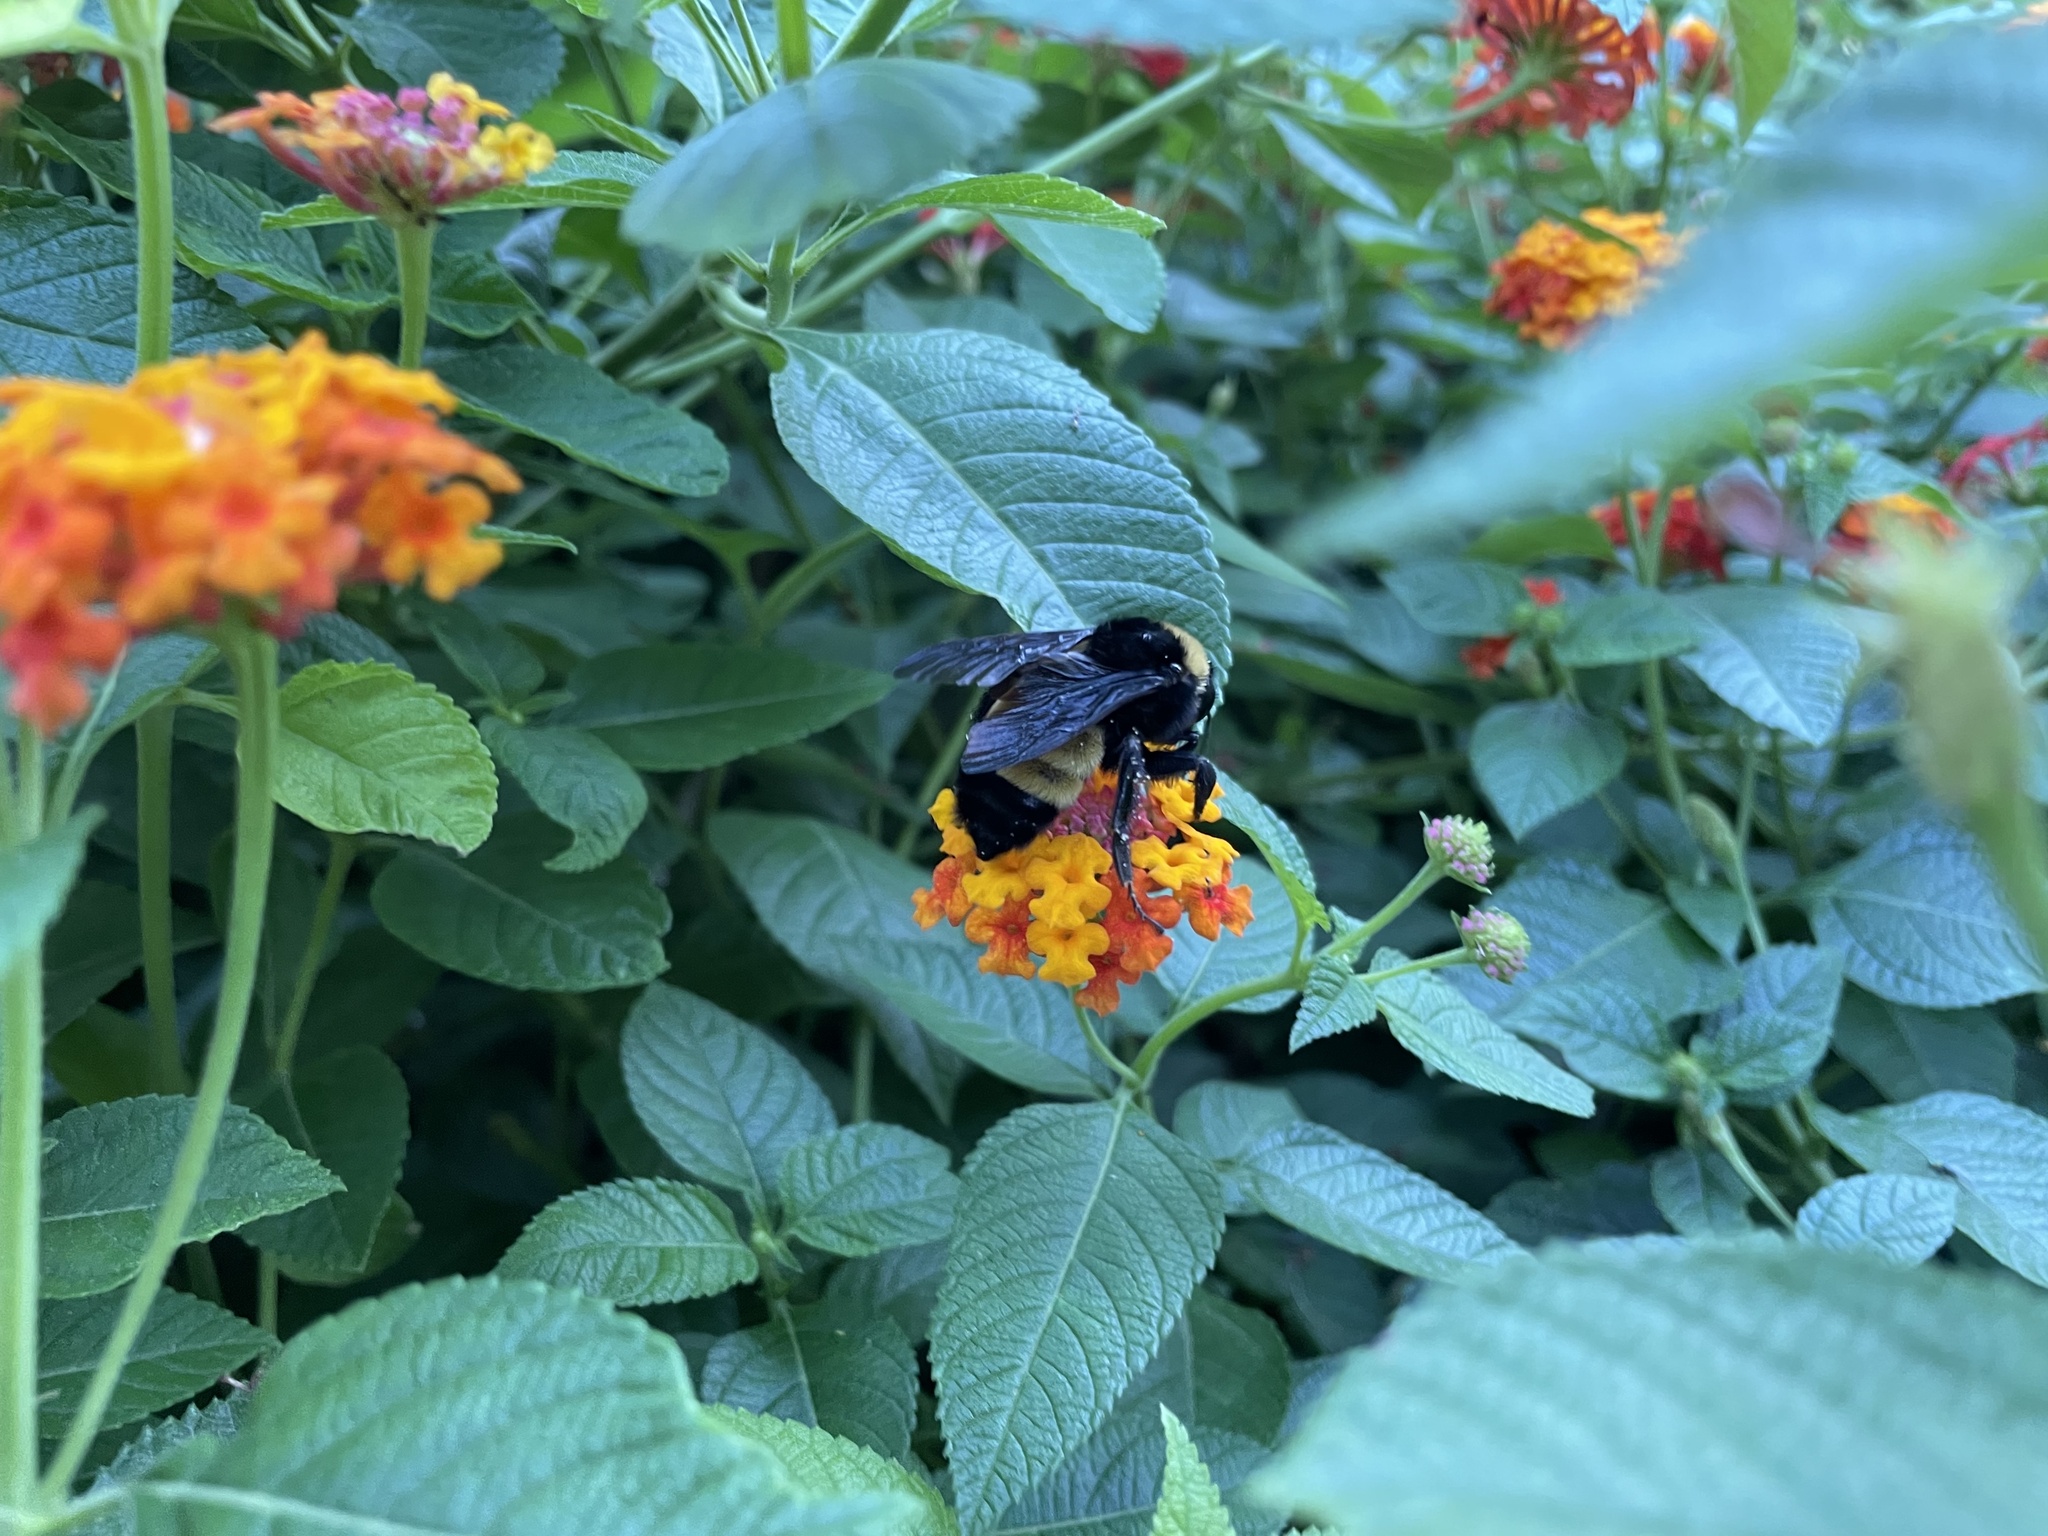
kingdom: Animalia
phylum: Arthropoda
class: Insecta
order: Hymenoptera
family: Apidae
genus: Bombus
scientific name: Bombus pensylvanicus
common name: Bumble bee
